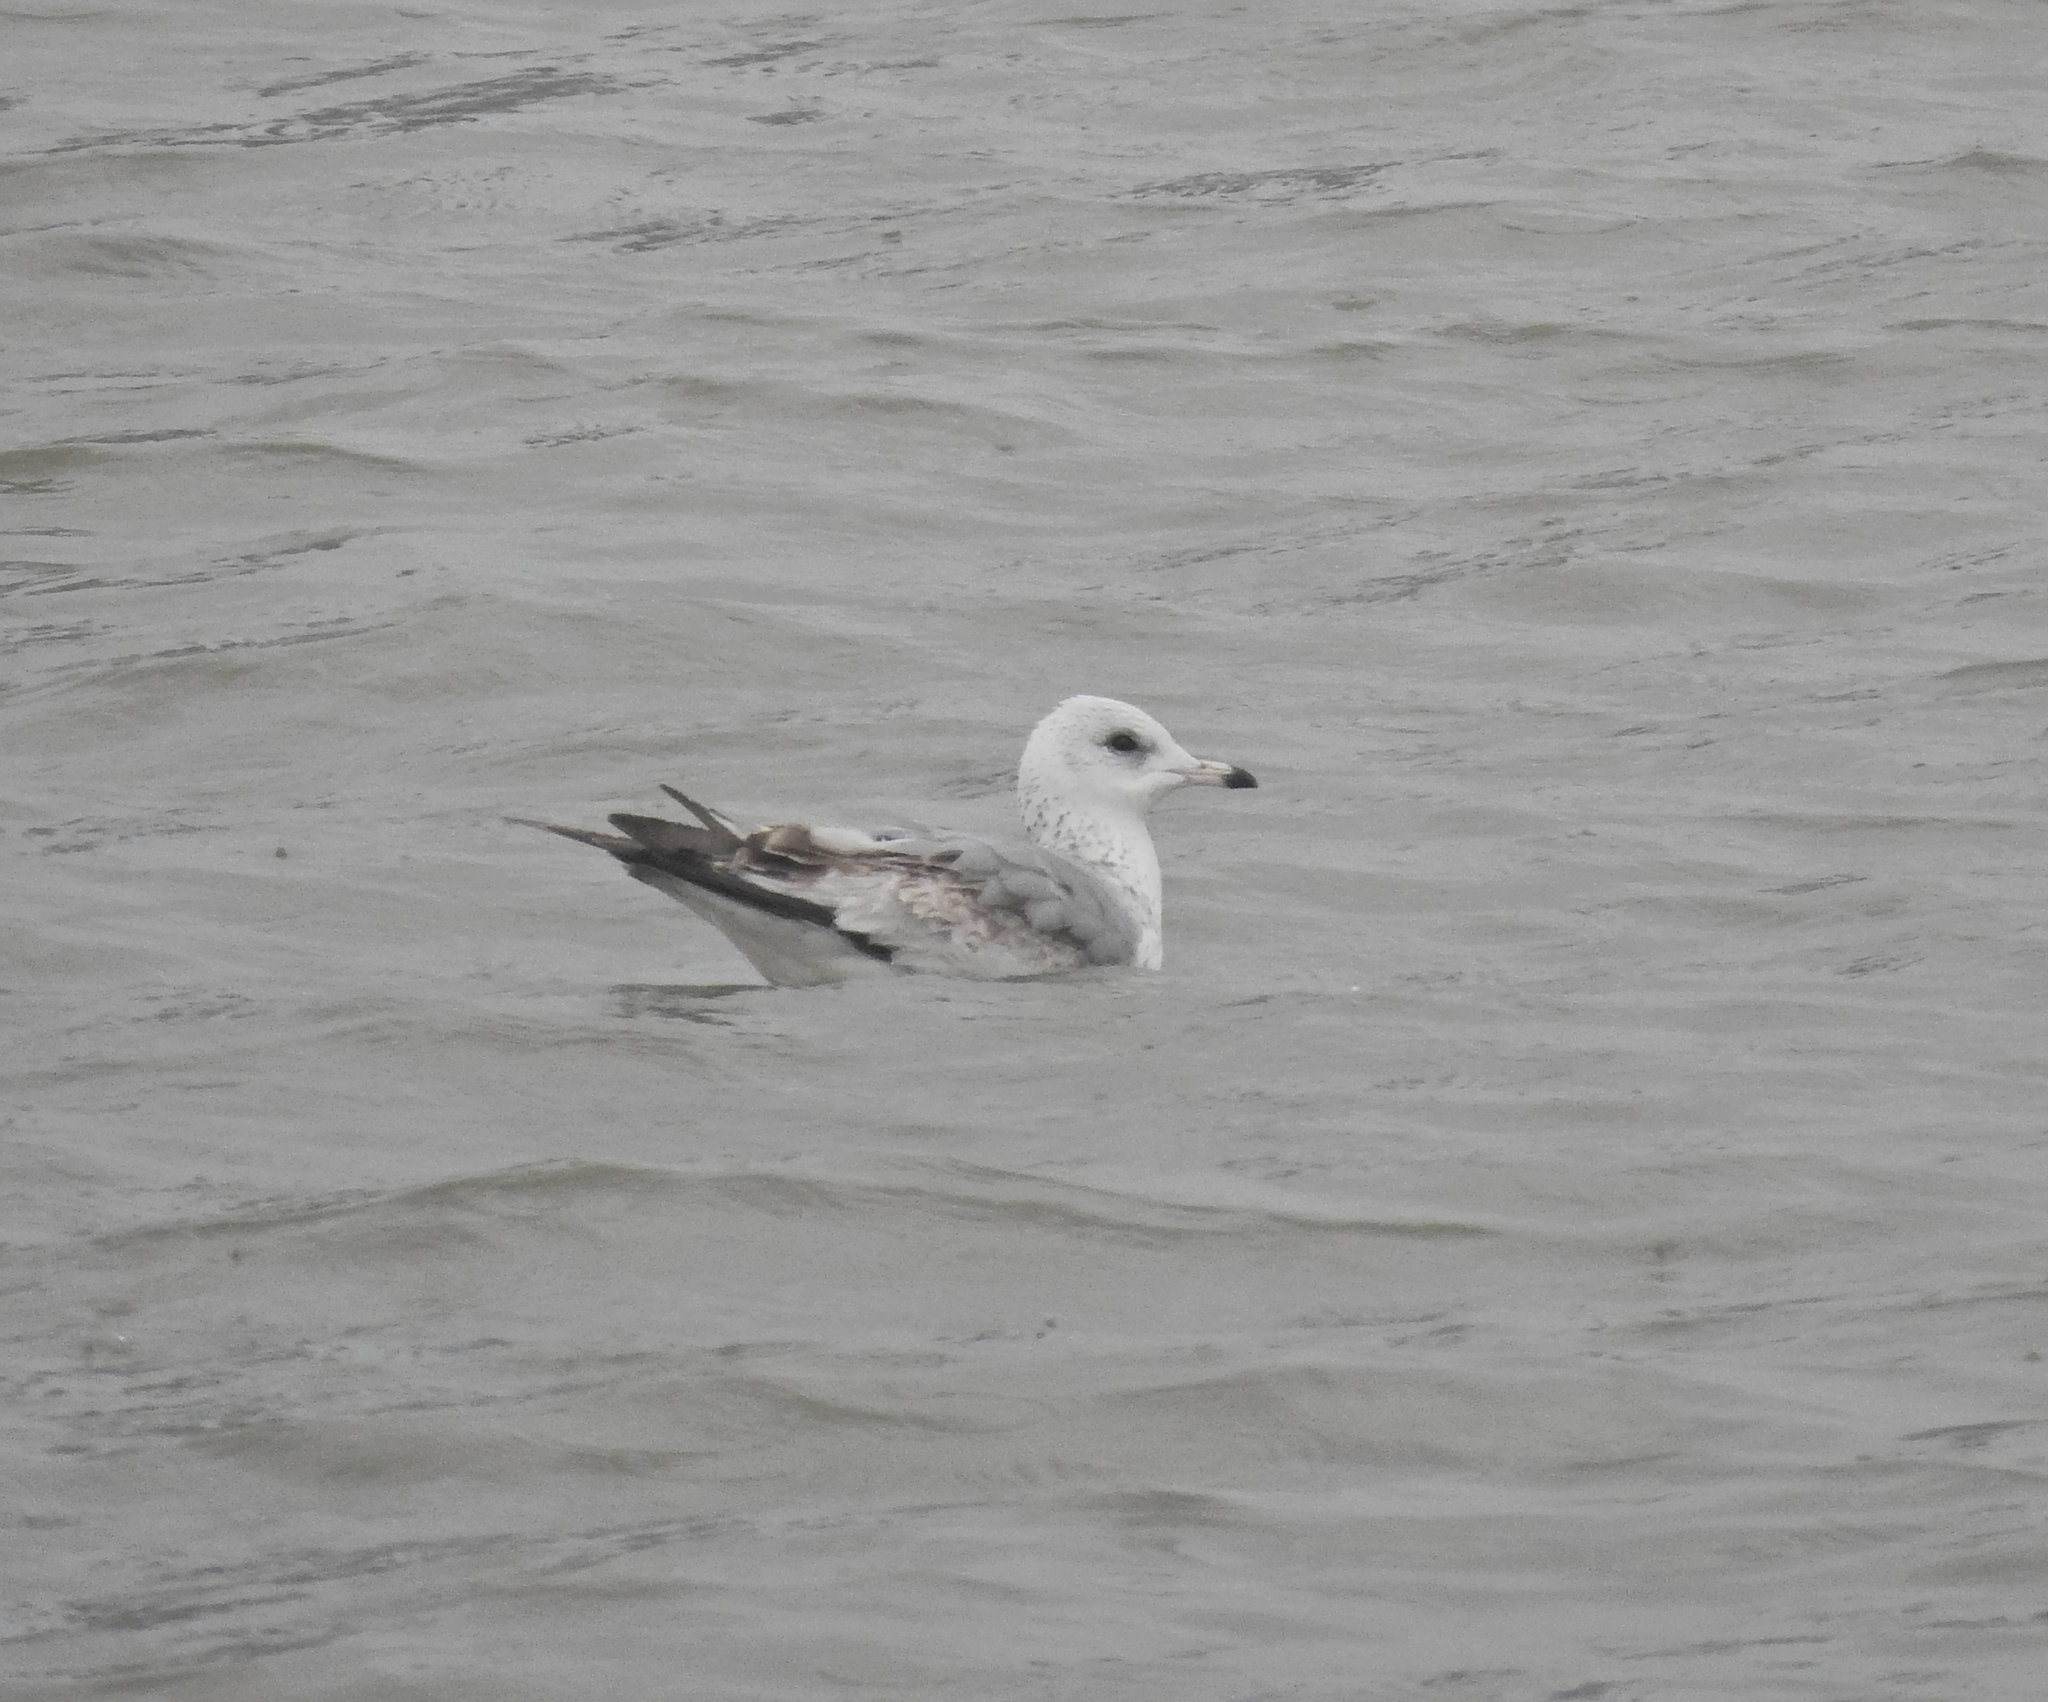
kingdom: Animalia
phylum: Chordata
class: Aves
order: Charadriiformes
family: Laridae
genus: Larus
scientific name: Larus canus
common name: Mew gull
